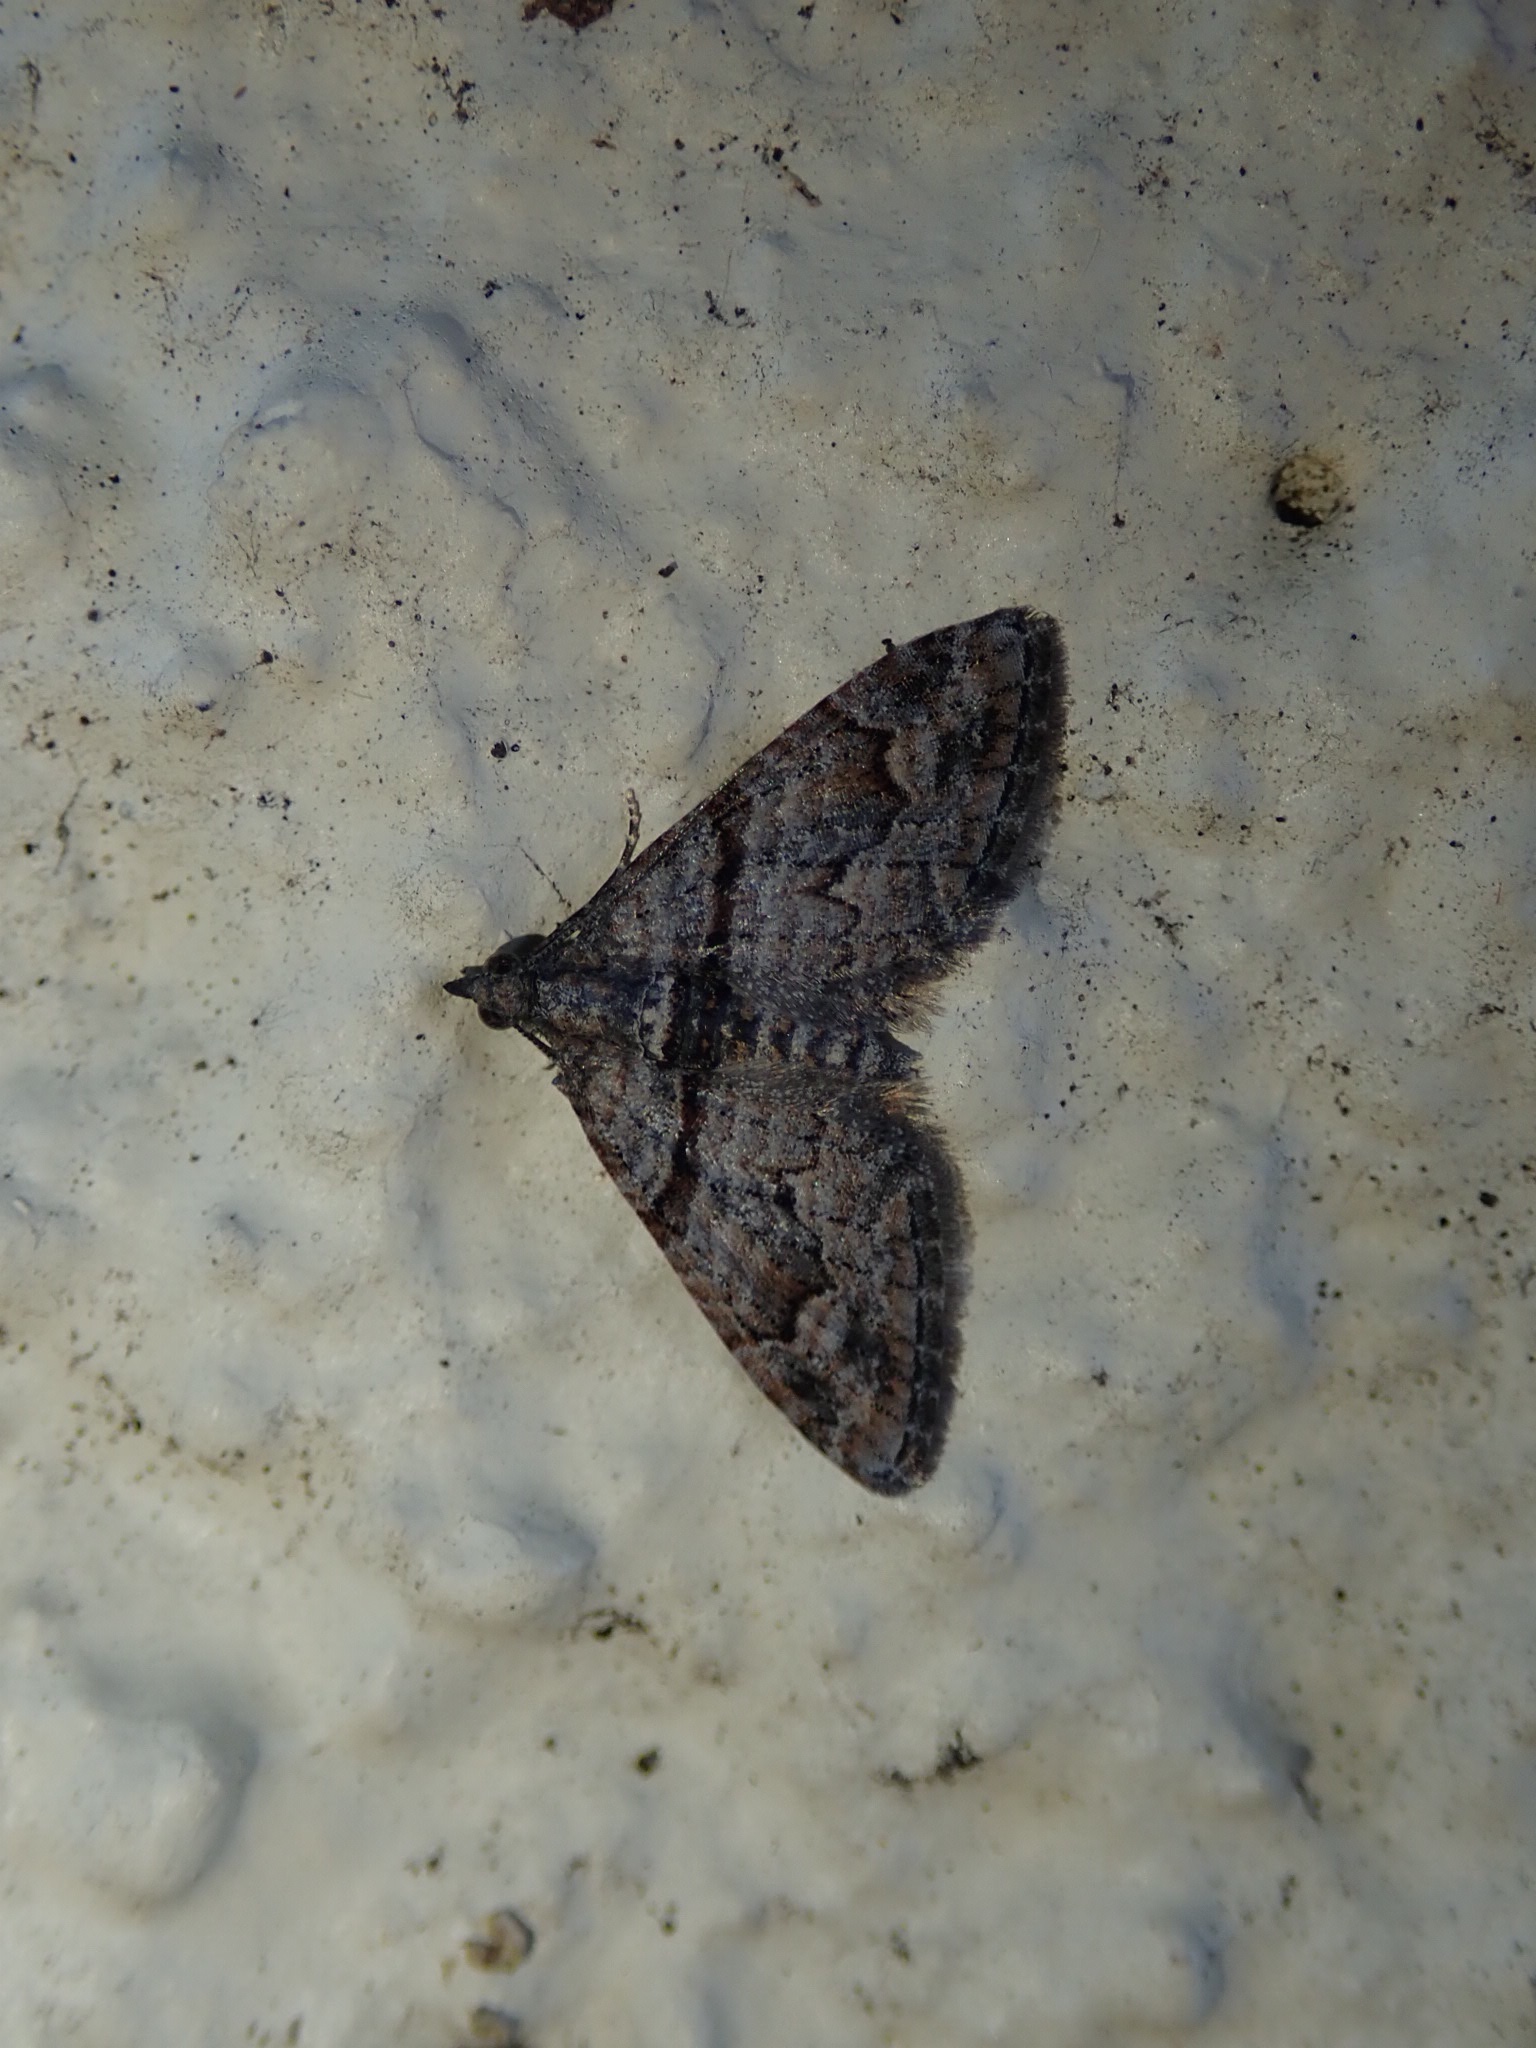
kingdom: Animalia
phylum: Arthropoda
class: Insecta
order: Lepidoptera
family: Geometridae
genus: Phrissogonus
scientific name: Phrissogonus laticostata
